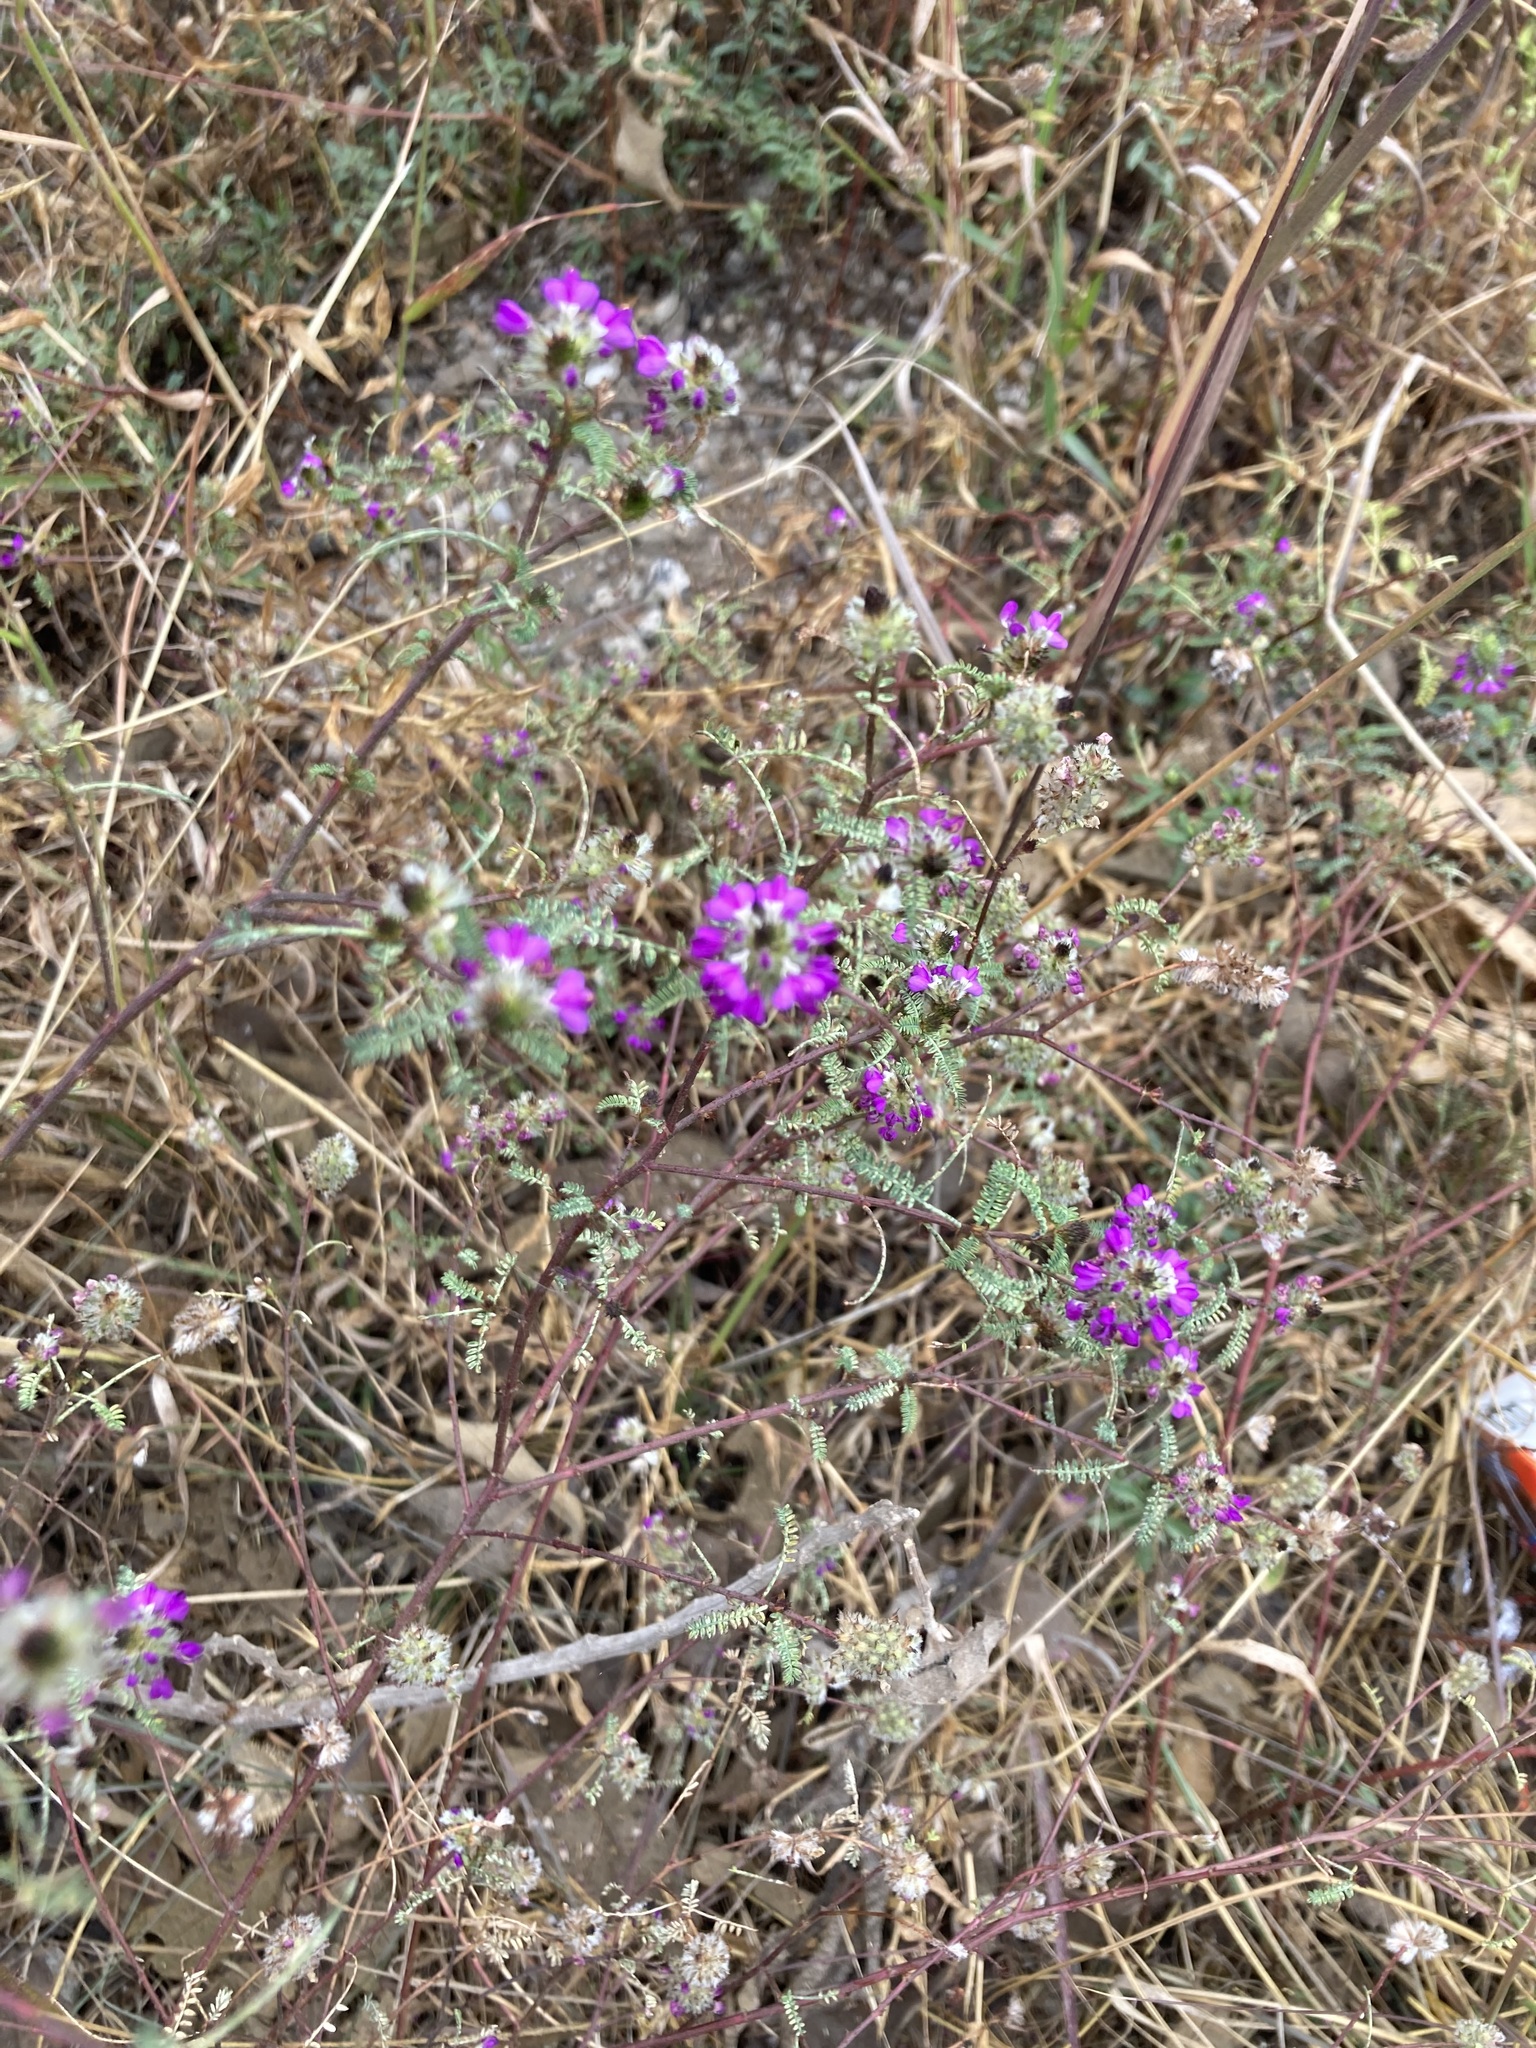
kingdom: Plantae
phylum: Tracheophyta
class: Magnoliopsida
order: Fabales
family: Fabaceae
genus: Dalea
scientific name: Dalea foliolosa
